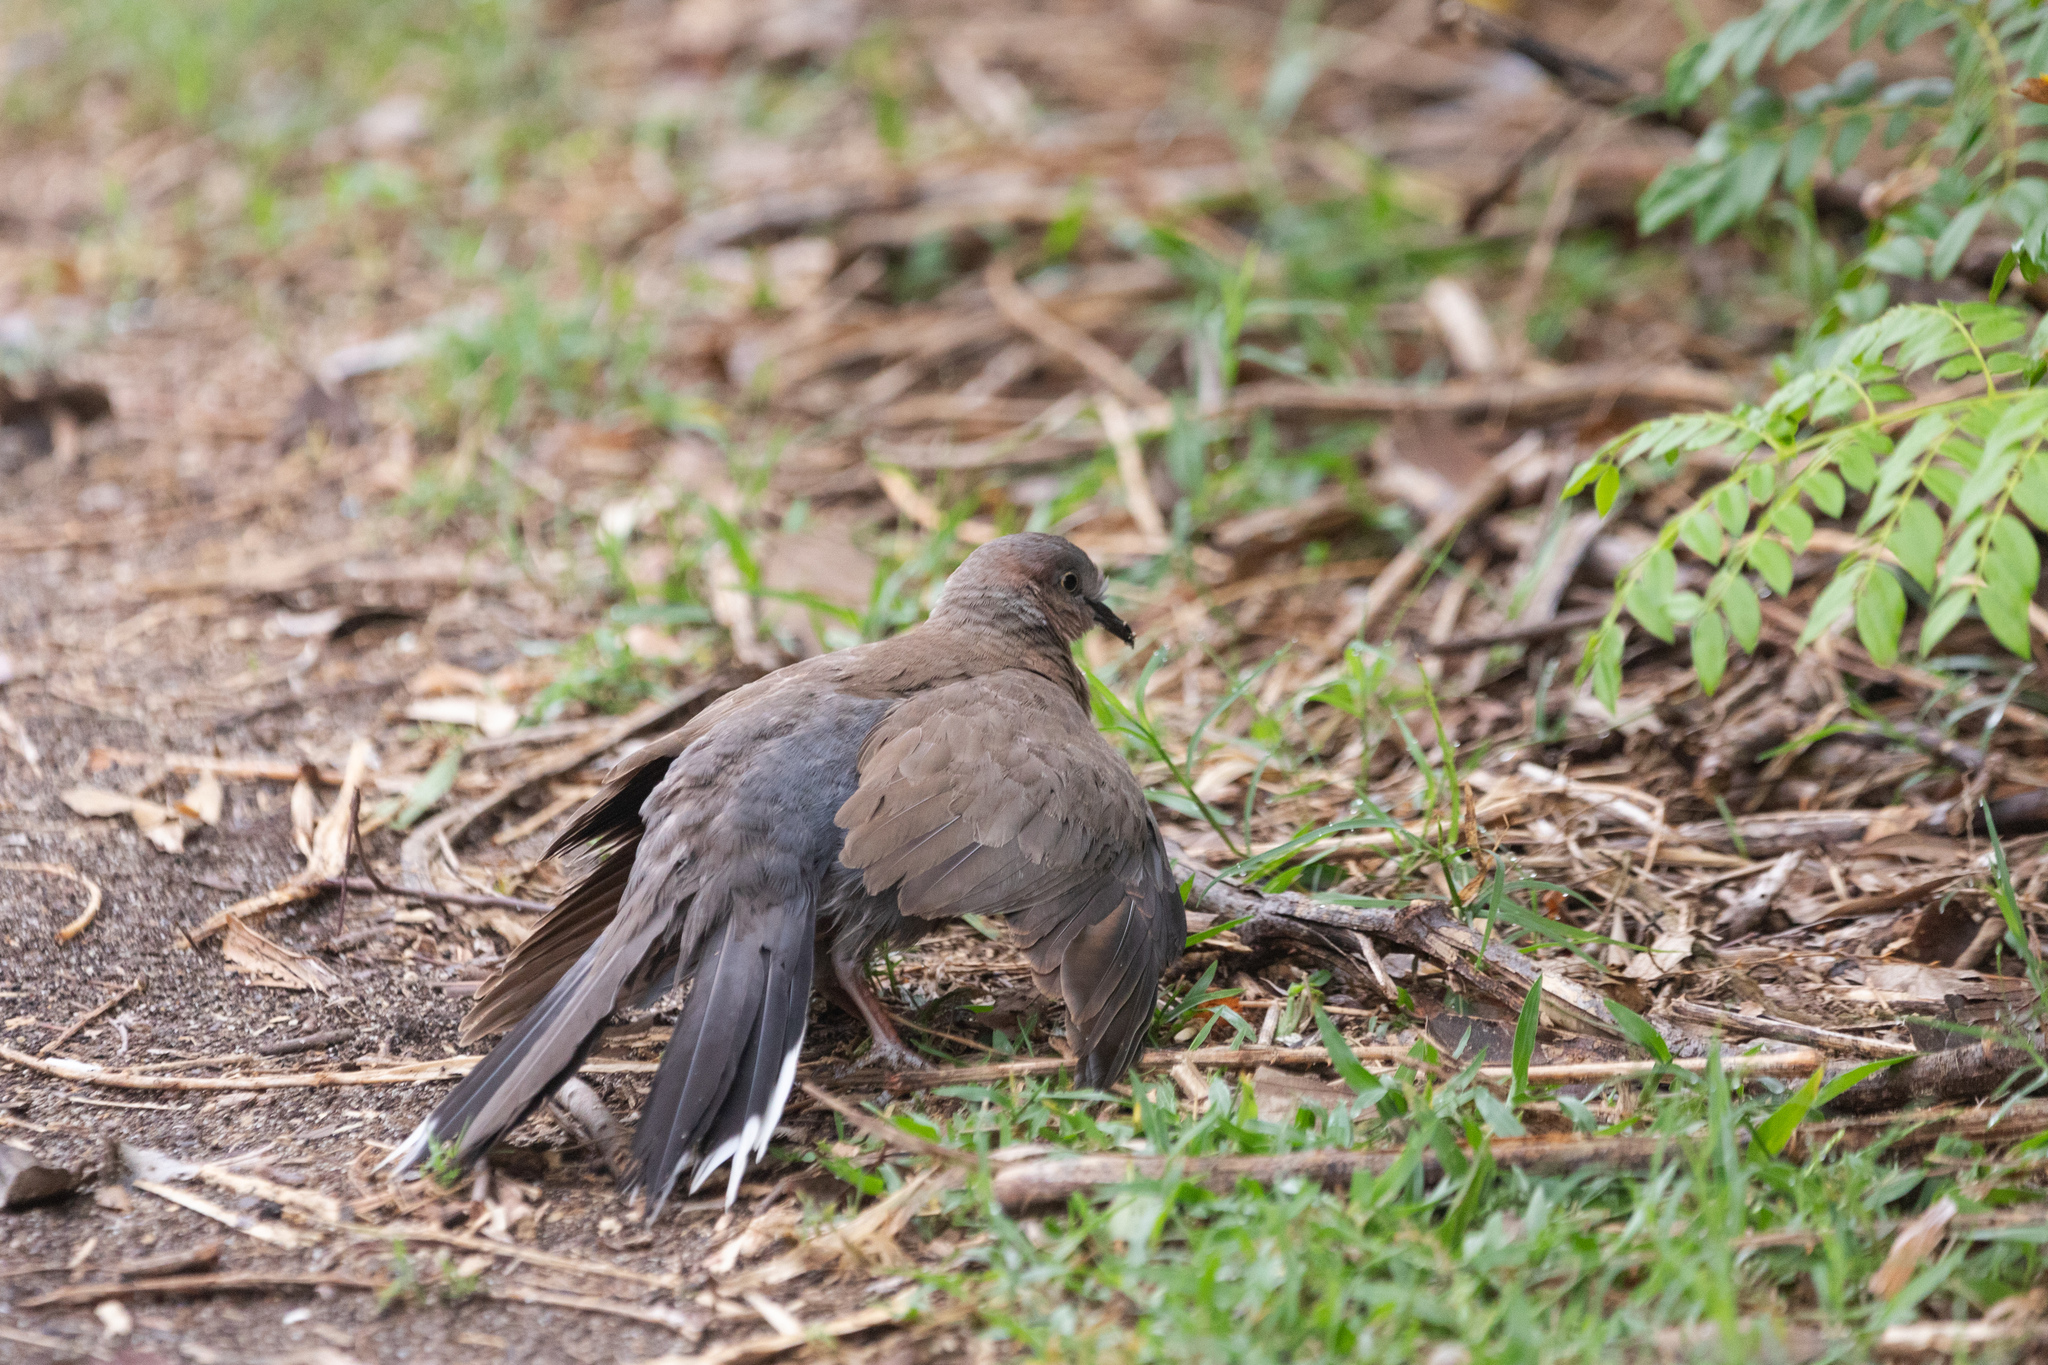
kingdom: Animalia
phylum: Chordata
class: Aves
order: Columbiformes
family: Columbidae
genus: Spilopelia
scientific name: Spilopelia chinensis
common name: Spotted dove
